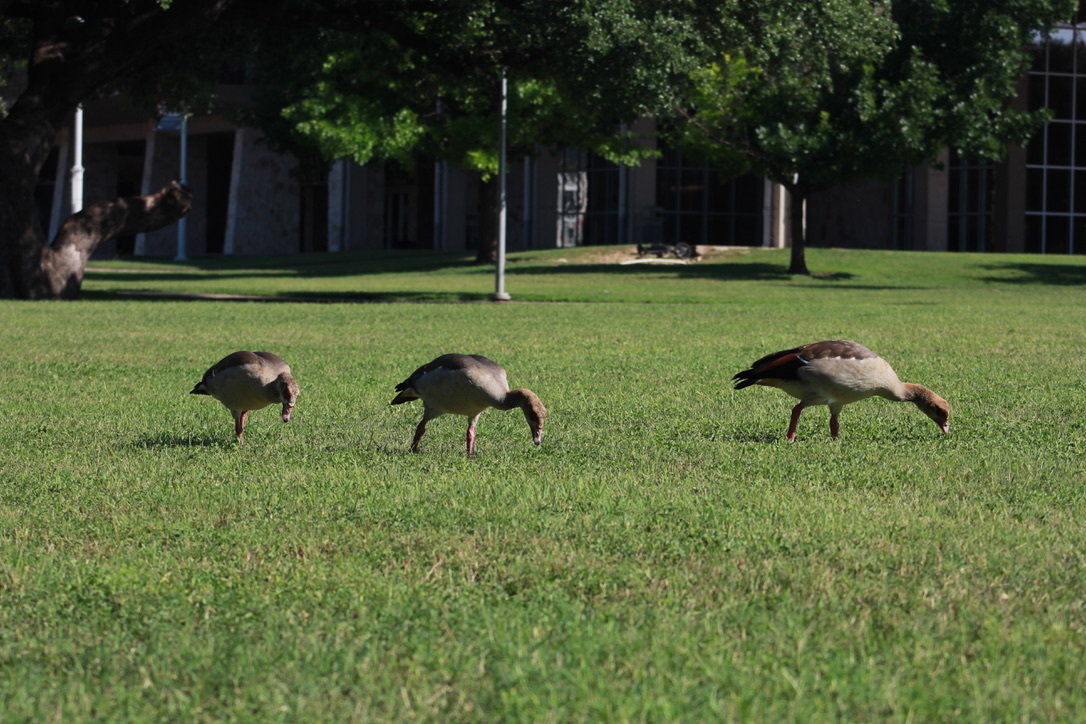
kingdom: Animalia
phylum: Chordata
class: Aves
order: Anseriformes
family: Anatidae
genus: Alopochen
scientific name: Alopochen aegyptiaca
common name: Egyptian goose
